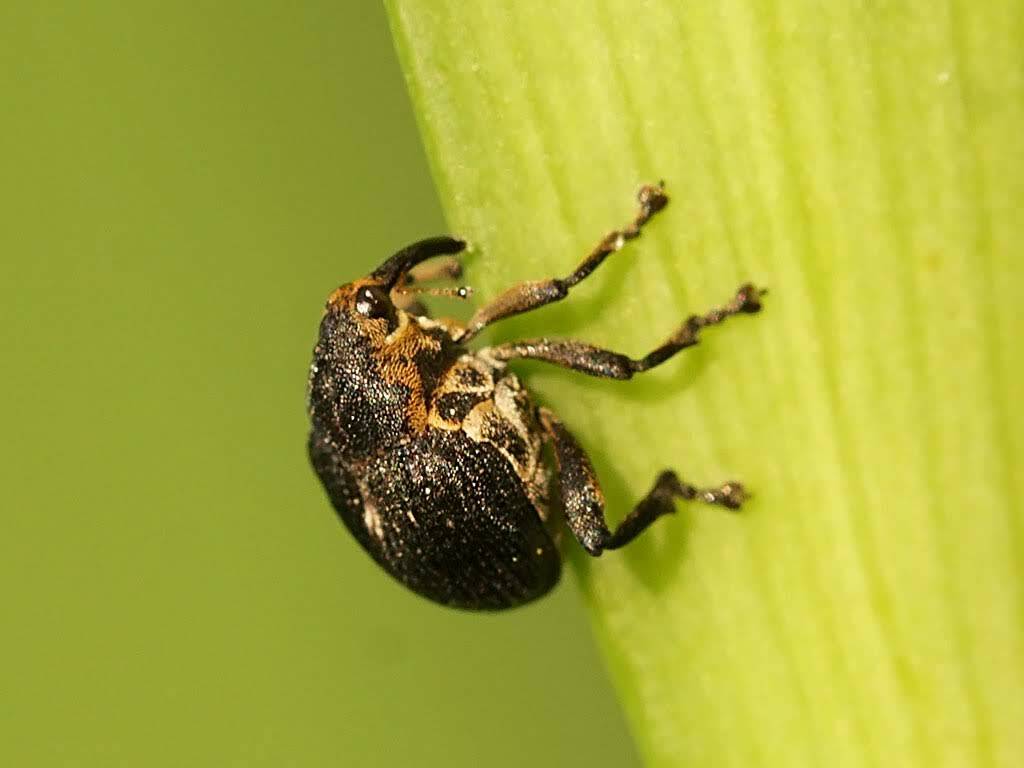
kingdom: Animalia
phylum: Arthropoda
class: Insecta
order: Coleoptera
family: Curculionidae
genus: Mononychus
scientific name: Mononychus punctumalbum
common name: Iris weevil
